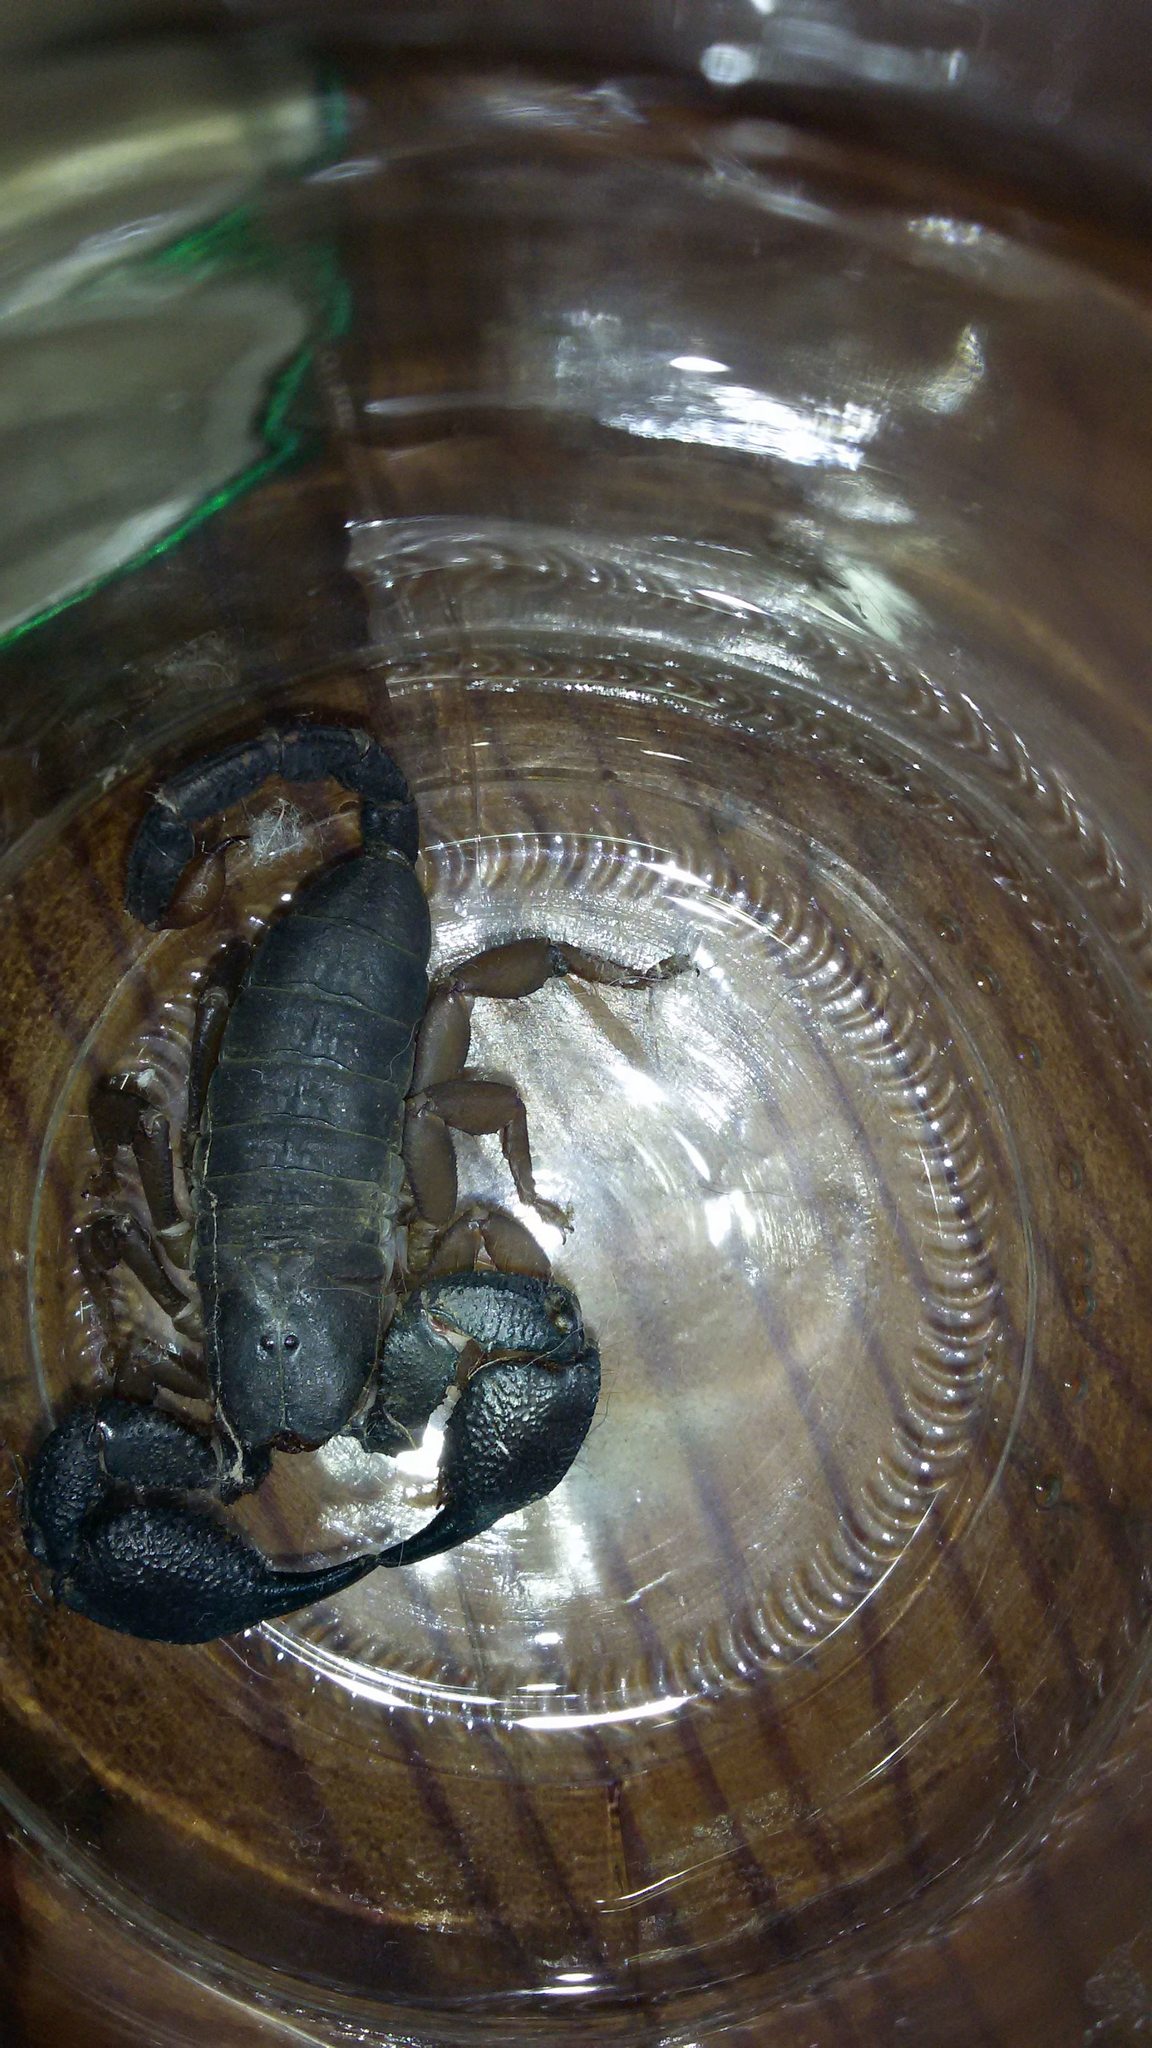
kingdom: Animalia
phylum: Arthropoda
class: Arachnida
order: Scorpiones
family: Hormuridae
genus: Opisthacanthus
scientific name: Opisthacanthus asper
